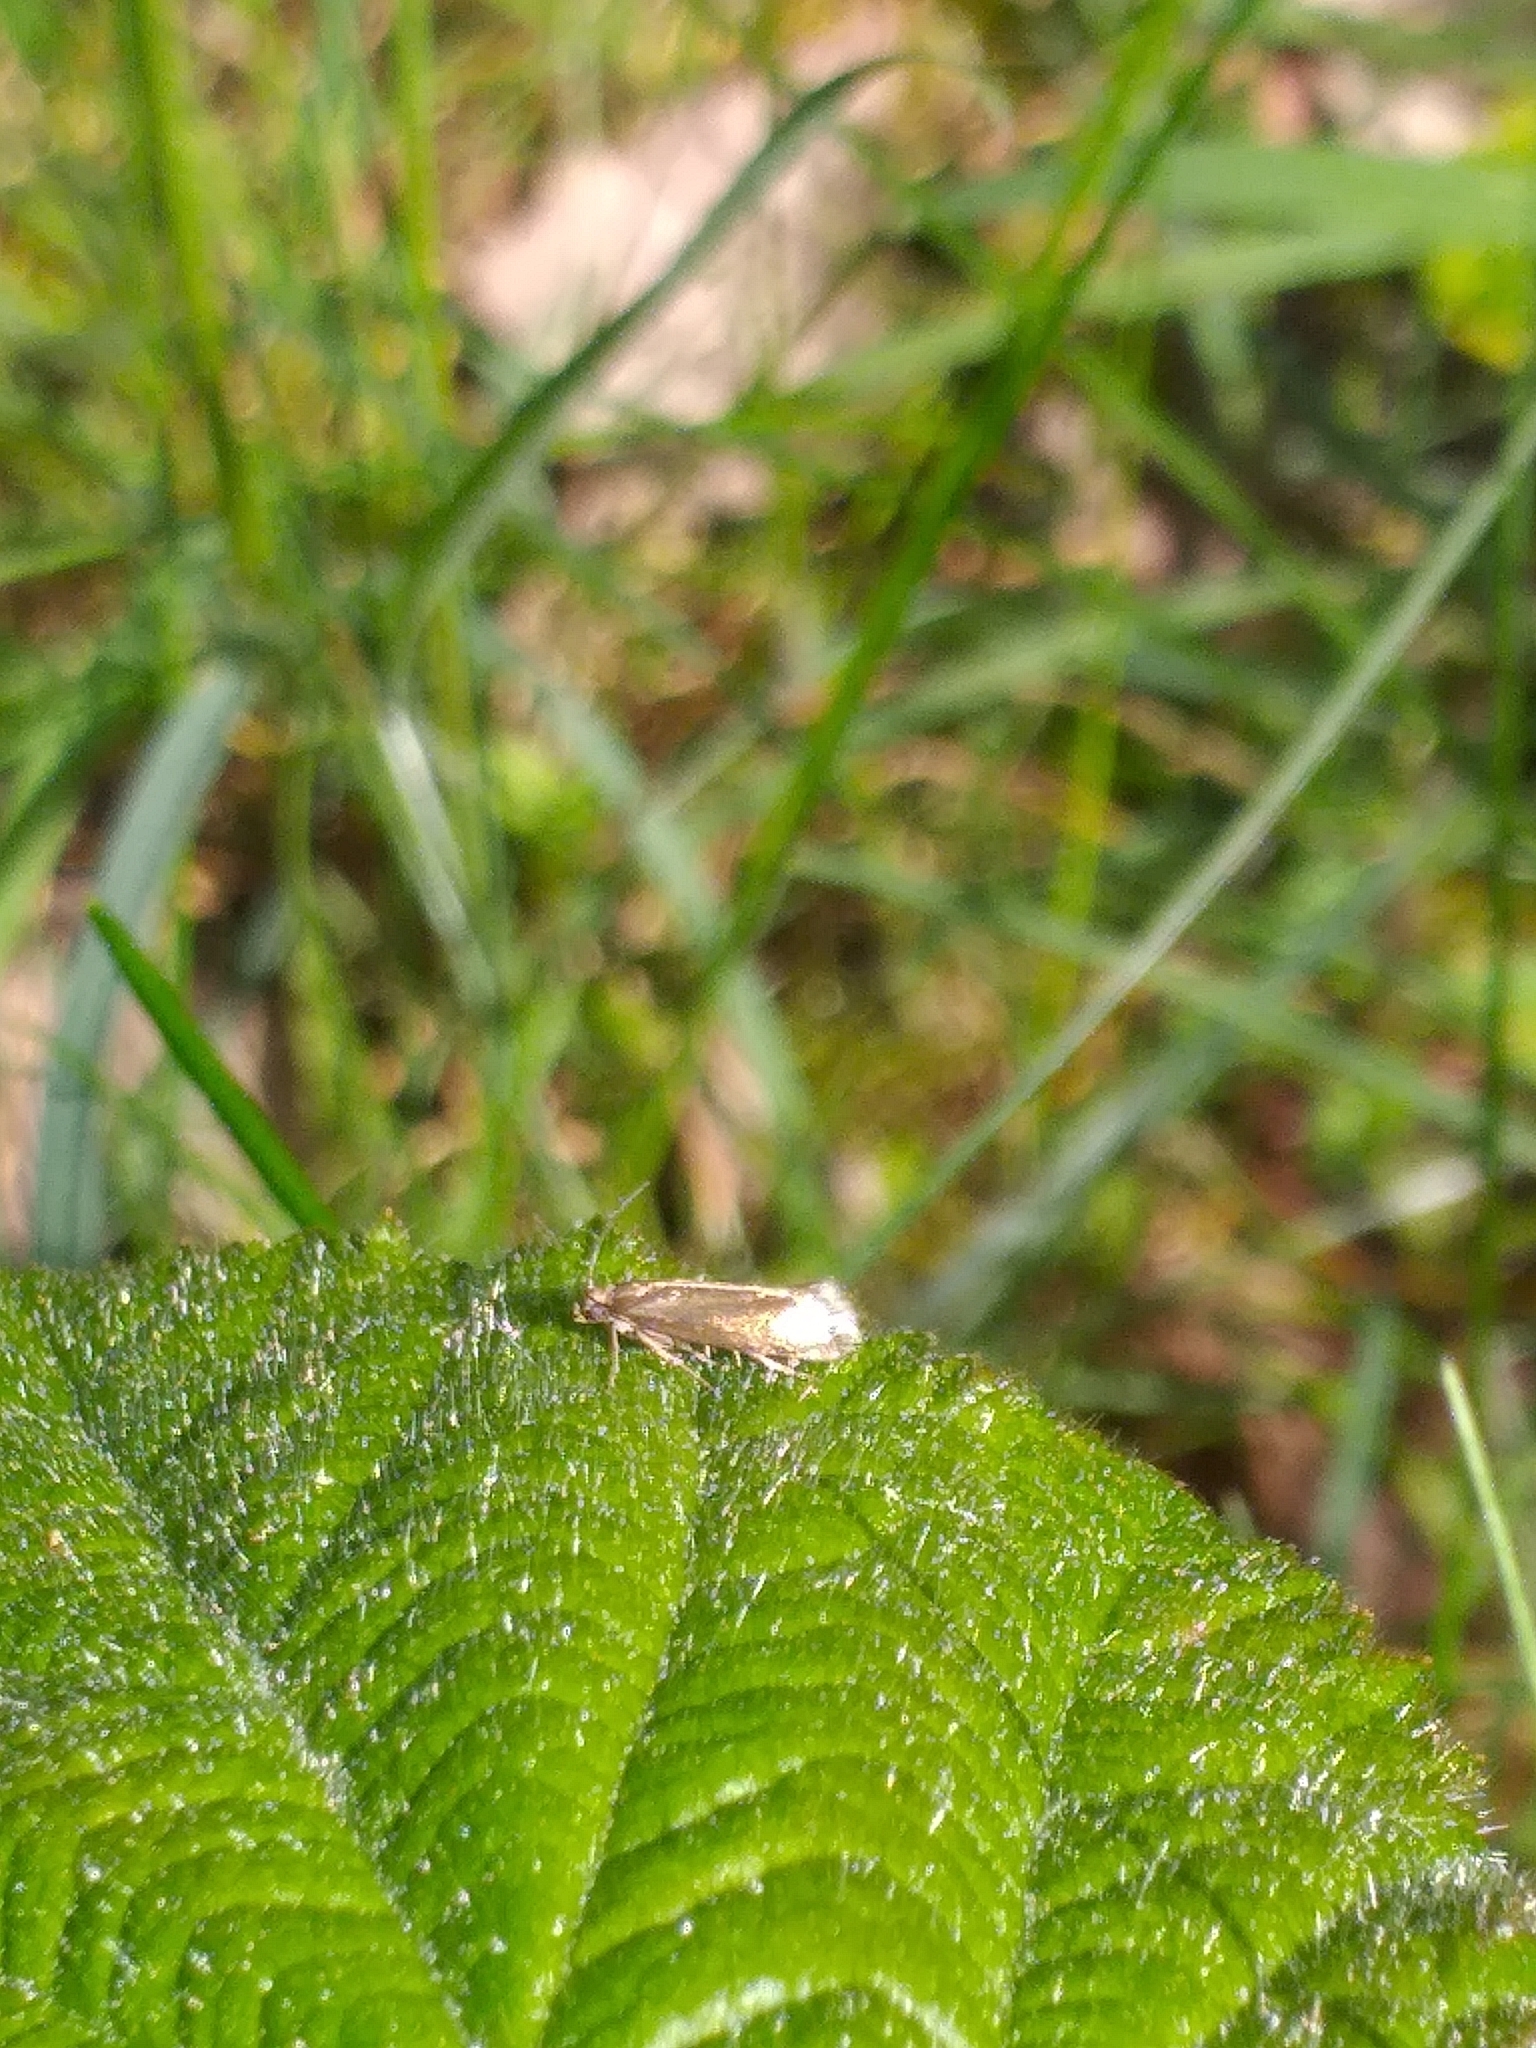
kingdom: Animalia
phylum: Arthropoda
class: Insecta
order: Lepidoptera
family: Micropterigidae
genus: Micropterix
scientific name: Micropterix calthella
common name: Plain gold
